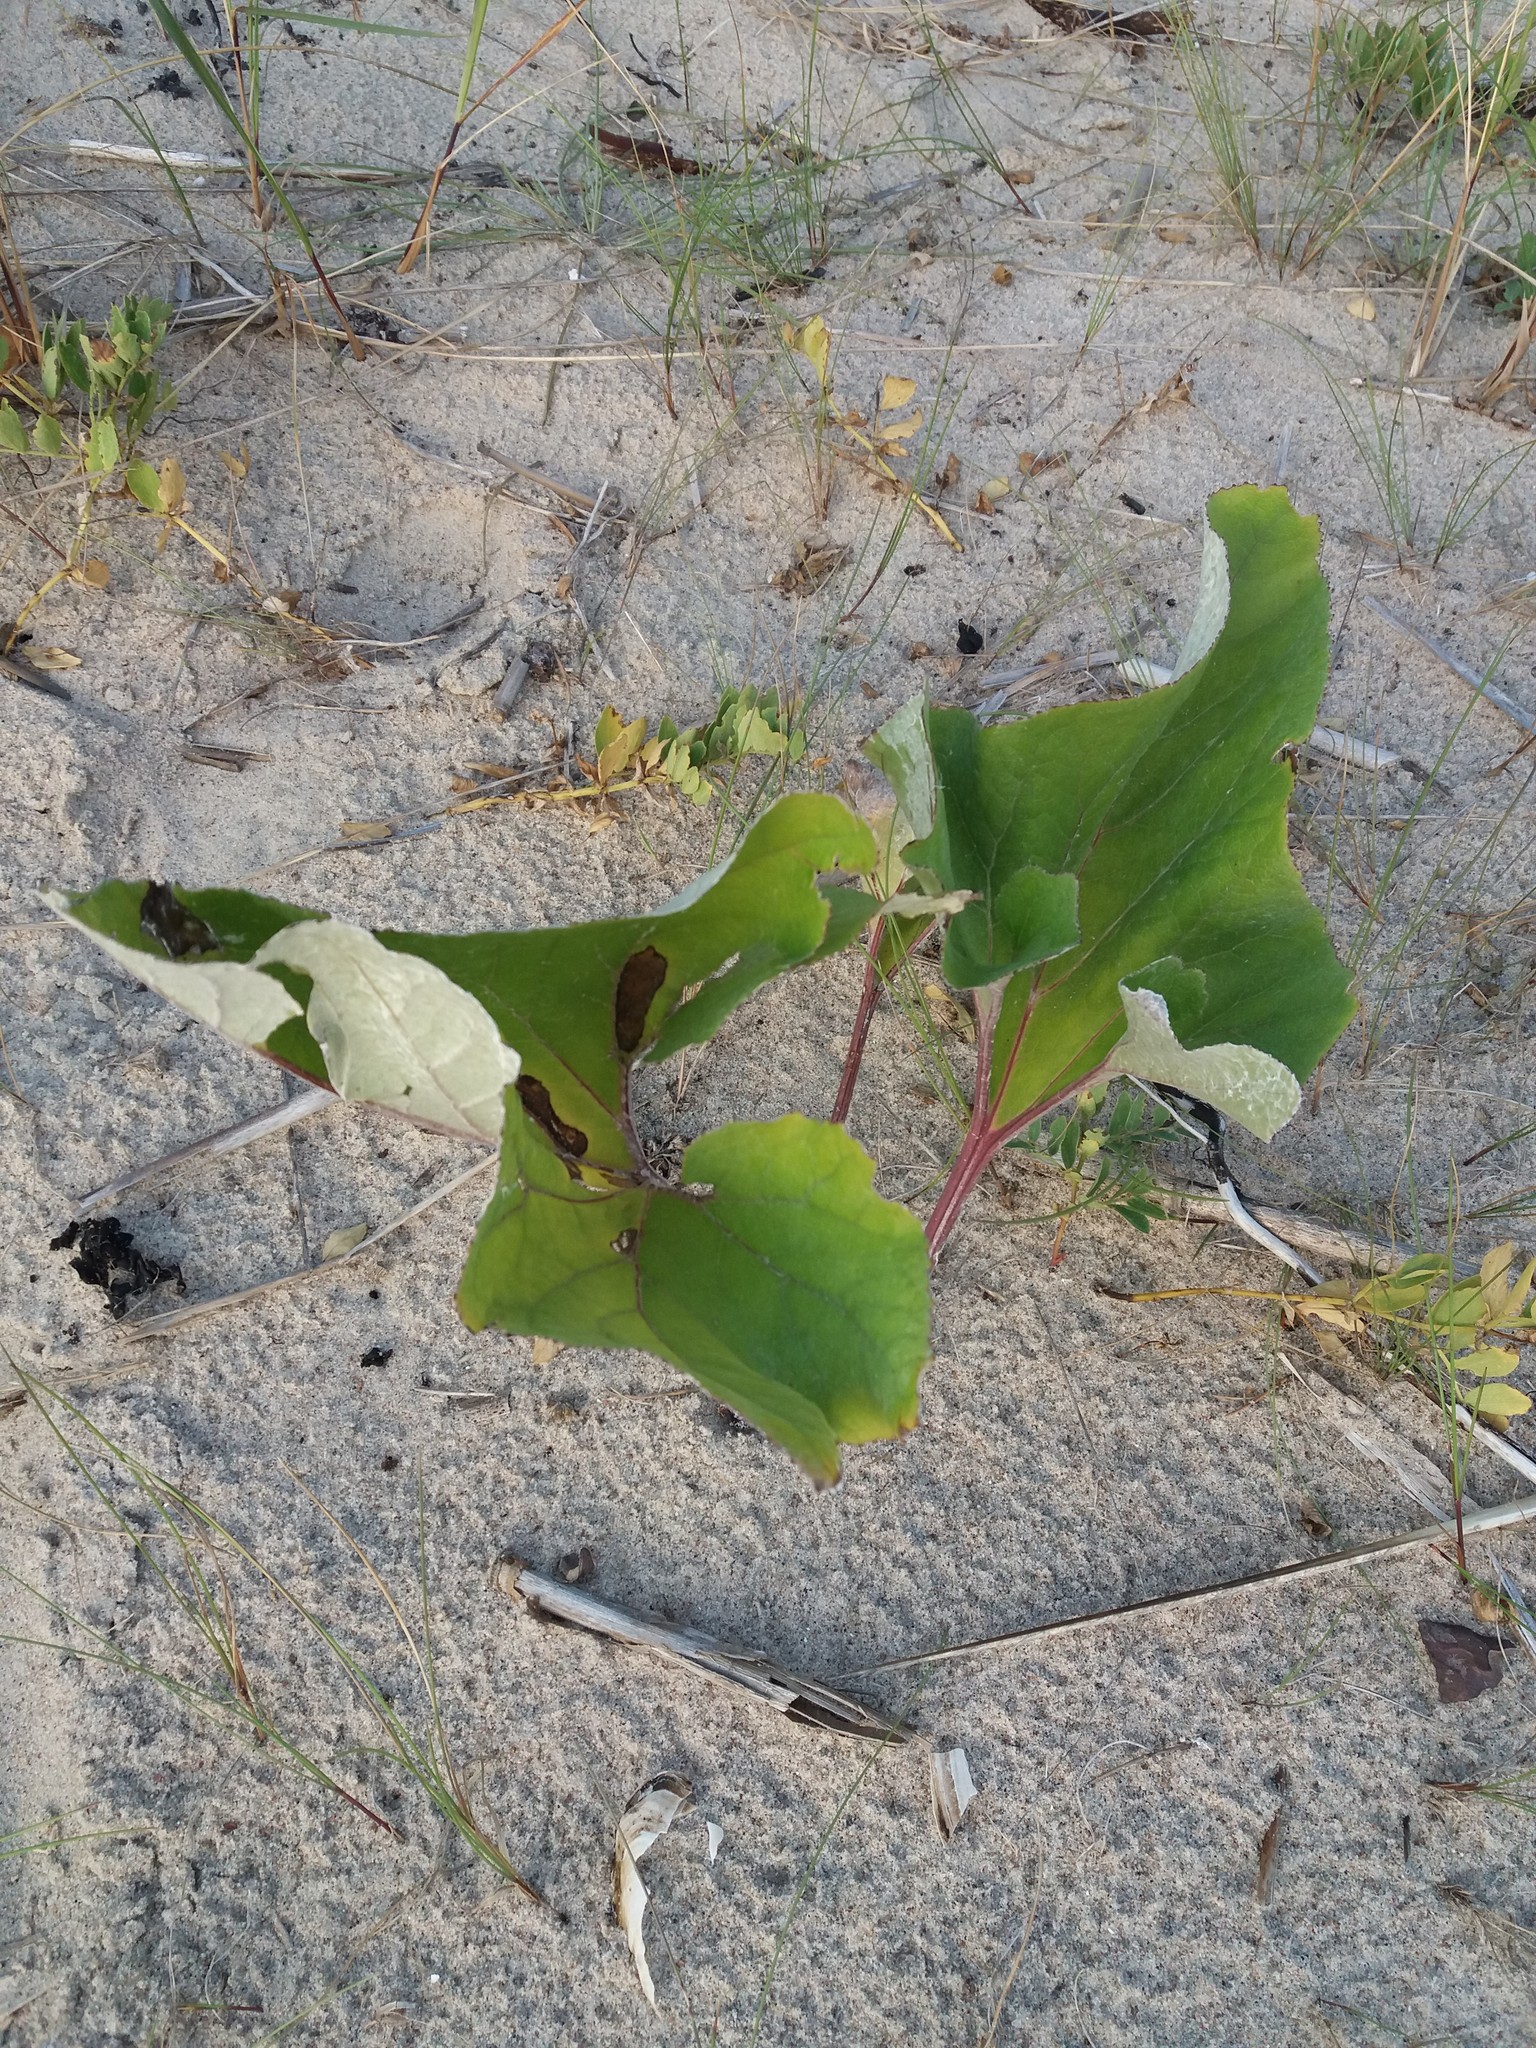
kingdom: Plantae
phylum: Tracheophyta
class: Magnoliopsida
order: Asterales
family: Asteraceae
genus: Petasites
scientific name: Petasites spurius
